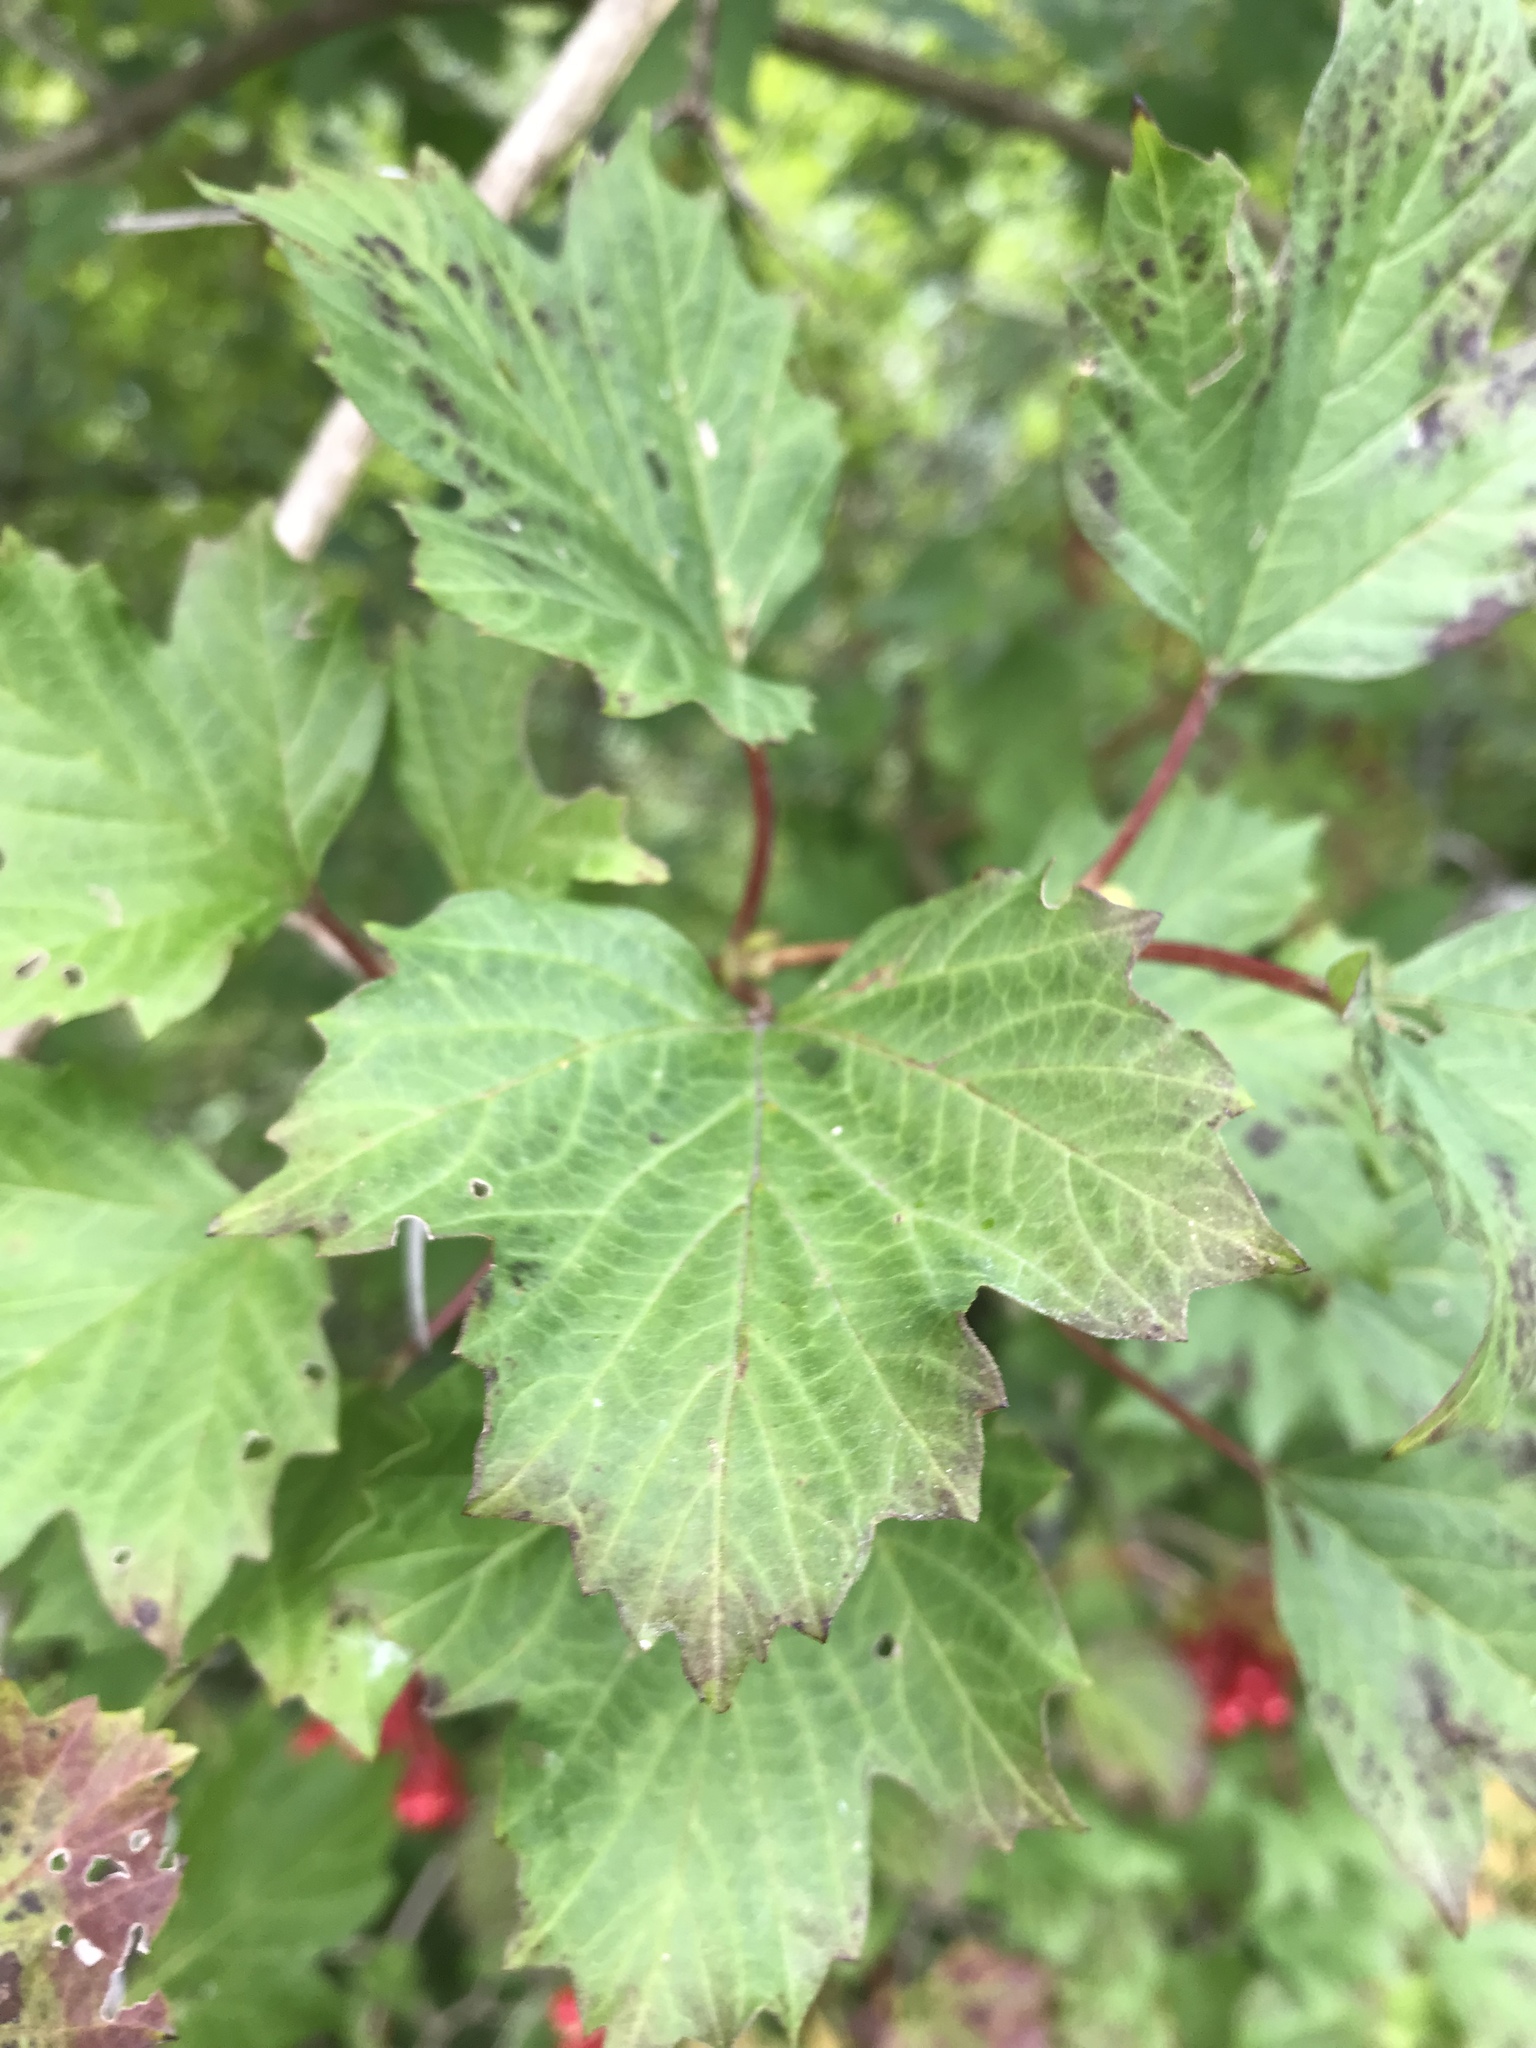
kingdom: Plantae
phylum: Tracheophyta
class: Magnoliopsida
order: Dipsacales
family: Viburnaceae
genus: Viburnum
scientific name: Viburnum opulus
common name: Guelder-rose
